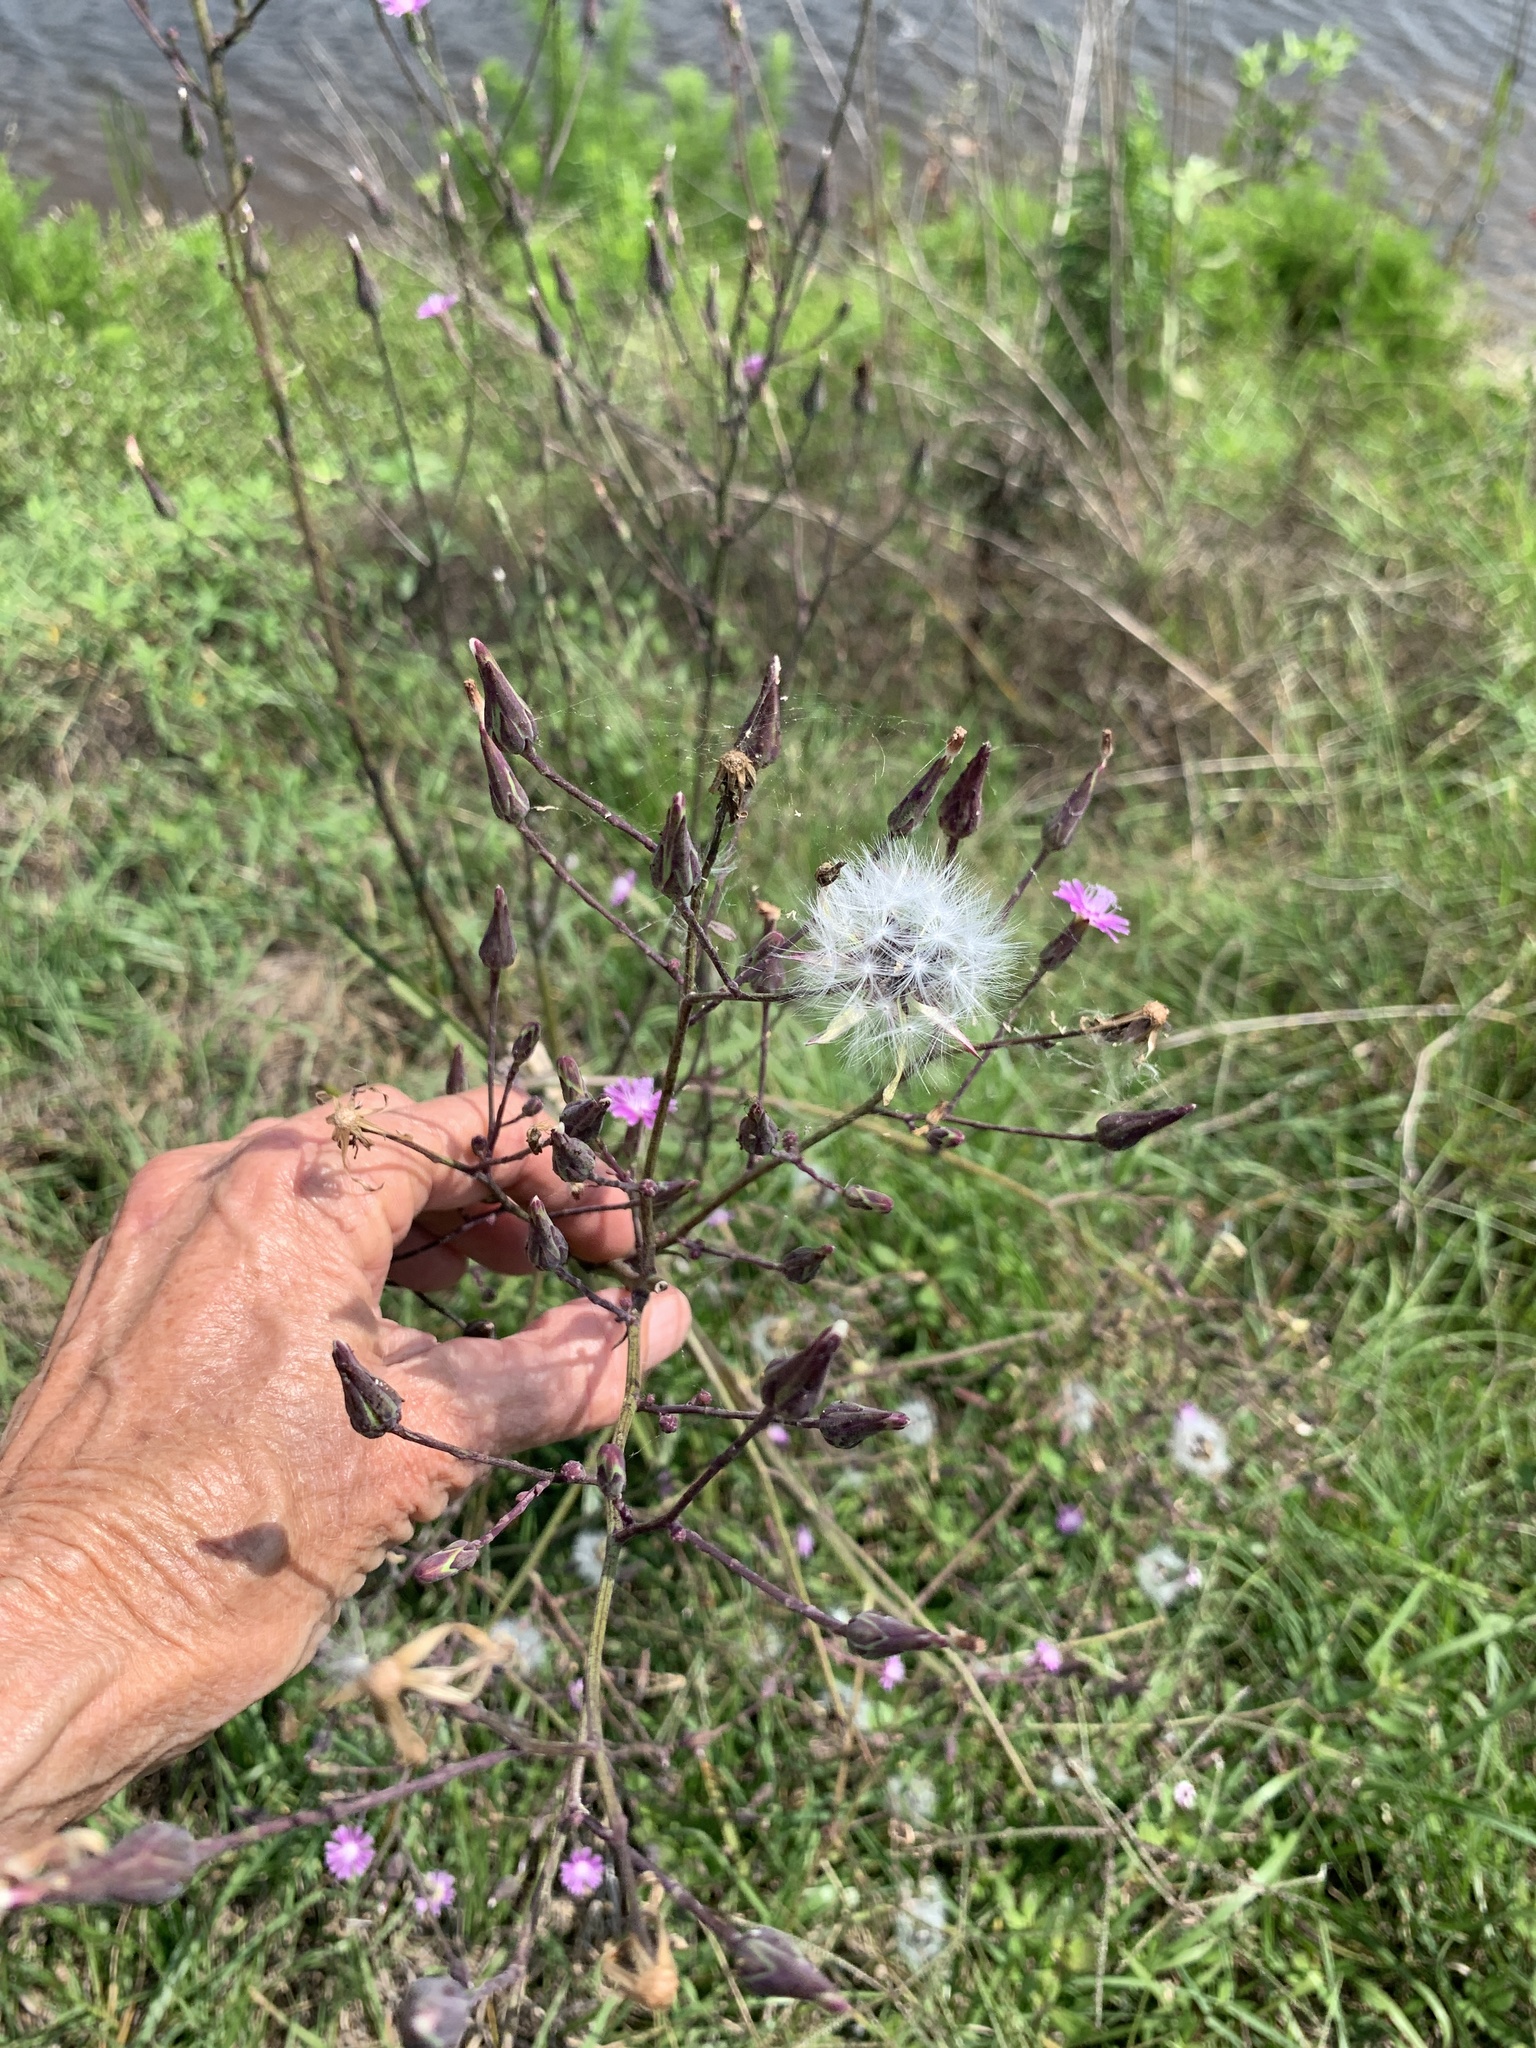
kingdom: Plantae
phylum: Tracheophyta
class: Magnoliopsida
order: Asterales
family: Asteraceae
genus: Lactuca
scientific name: Lactuca graminifolia
